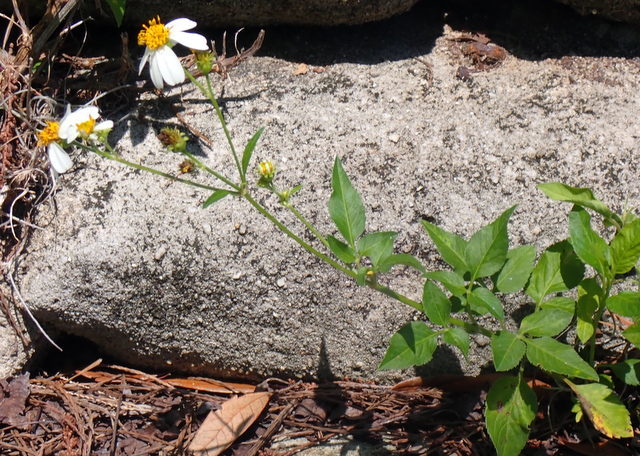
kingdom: Plantae
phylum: Tracheophyta
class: Magnoliopsida
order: Asterales
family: Asteraceae
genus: Bidens
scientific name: Bidens alba
